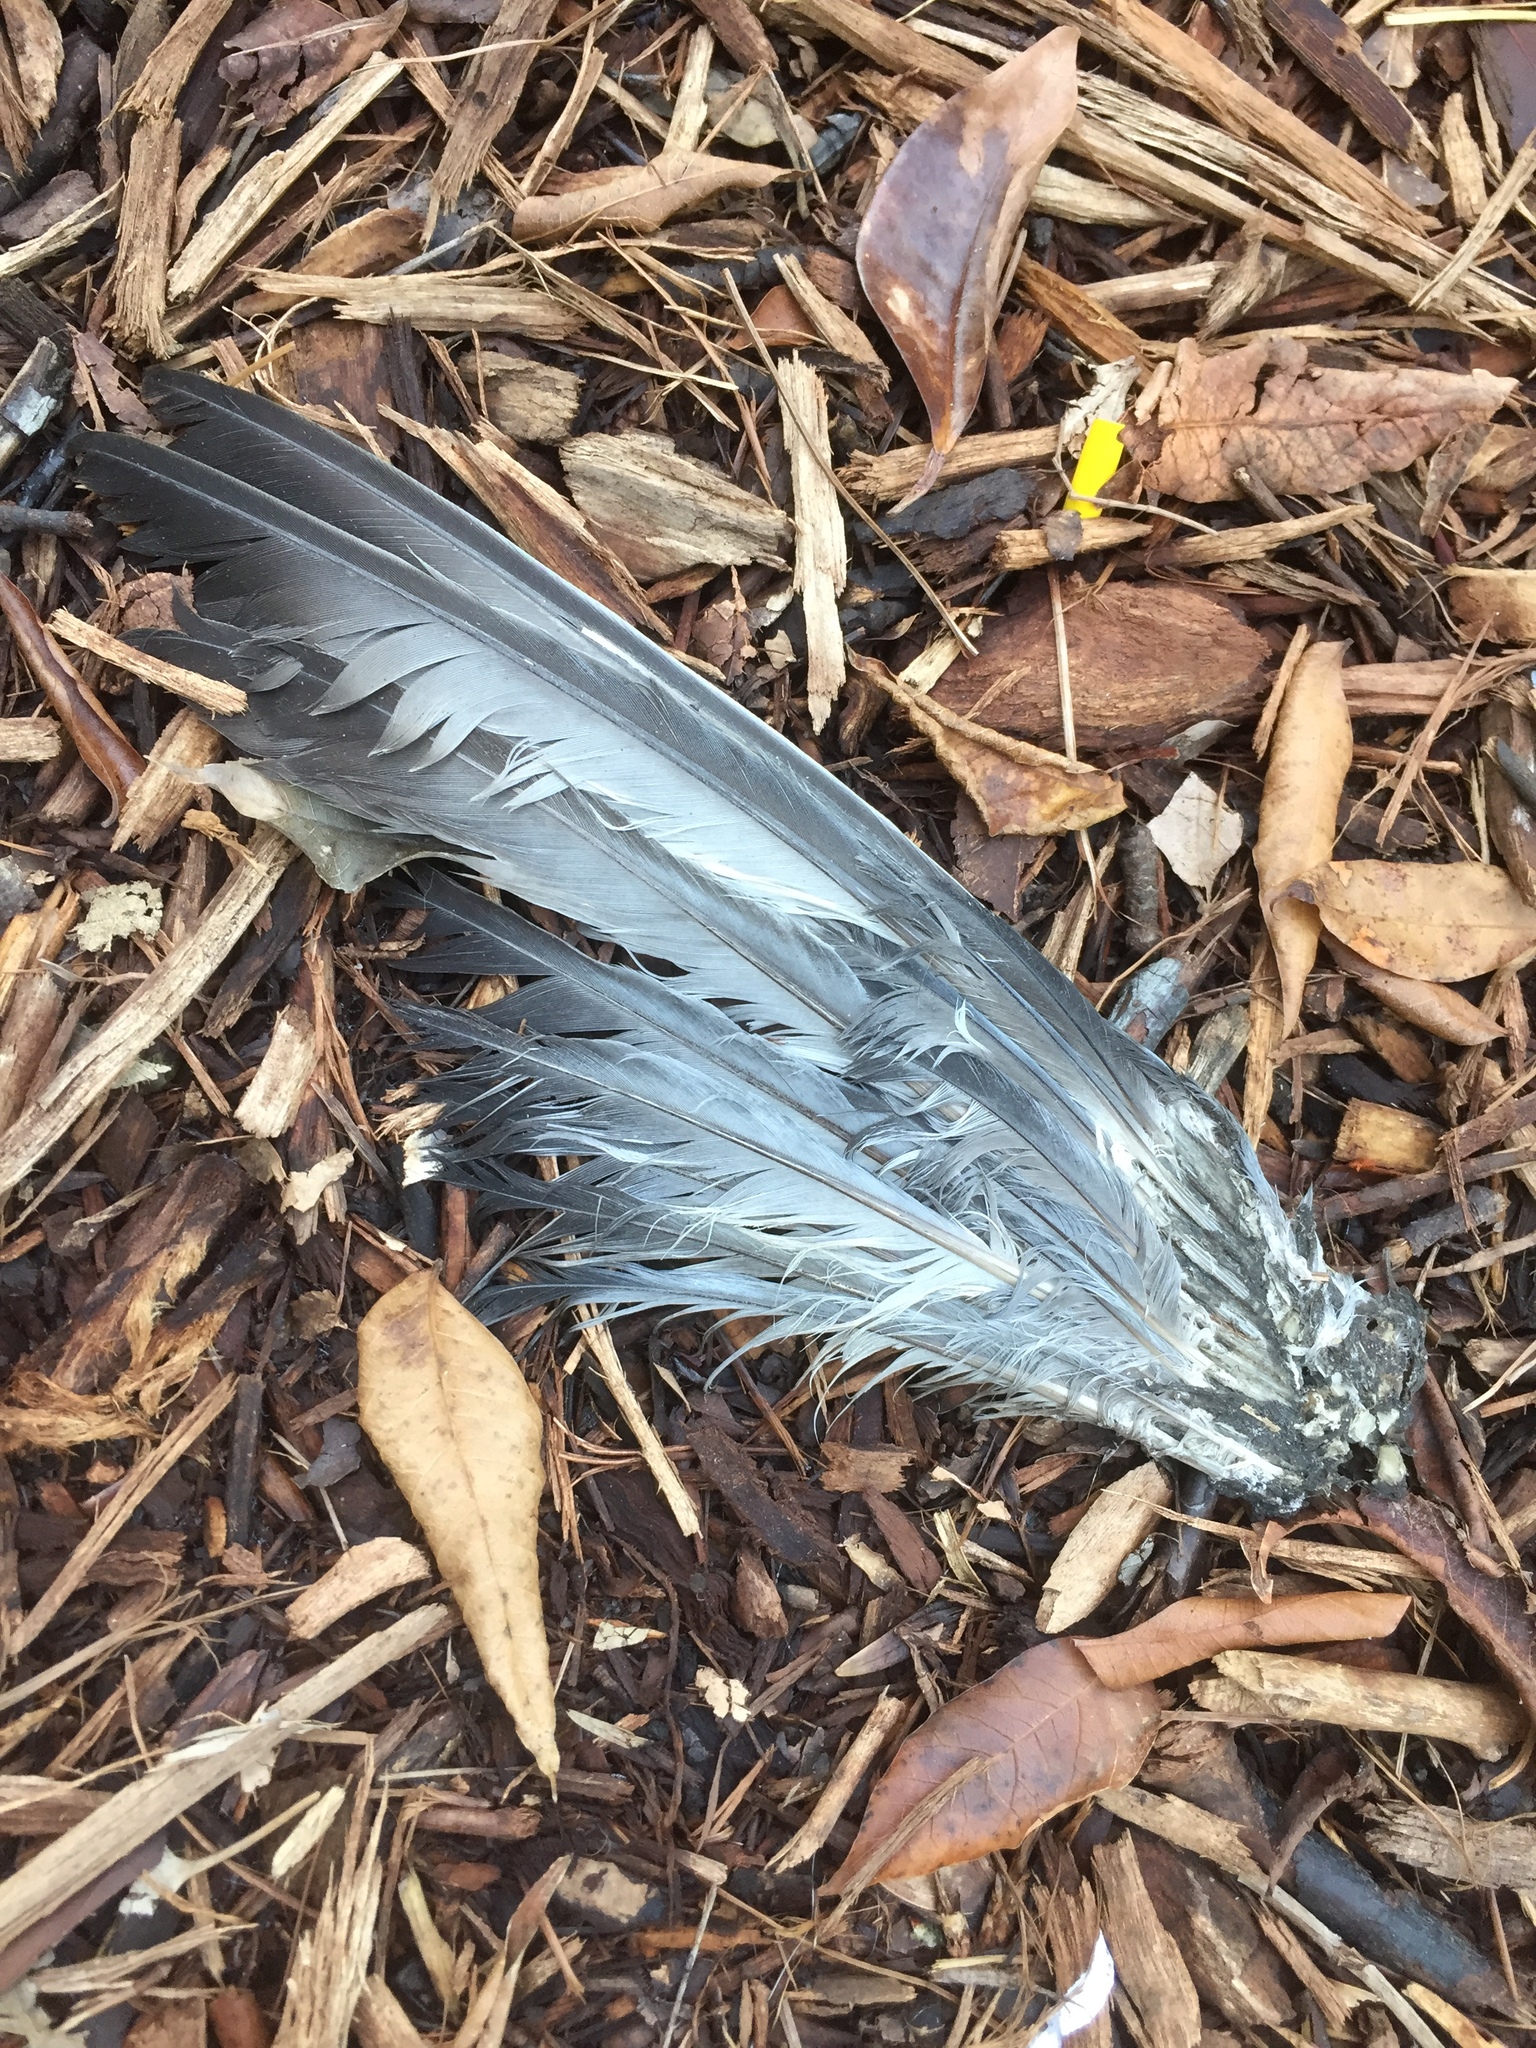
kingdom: Animalia
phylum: Chordata
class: Aves
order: Columbiformes
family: Columbidae
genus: Columba
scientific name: Columba livia
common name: Rock pigeon
